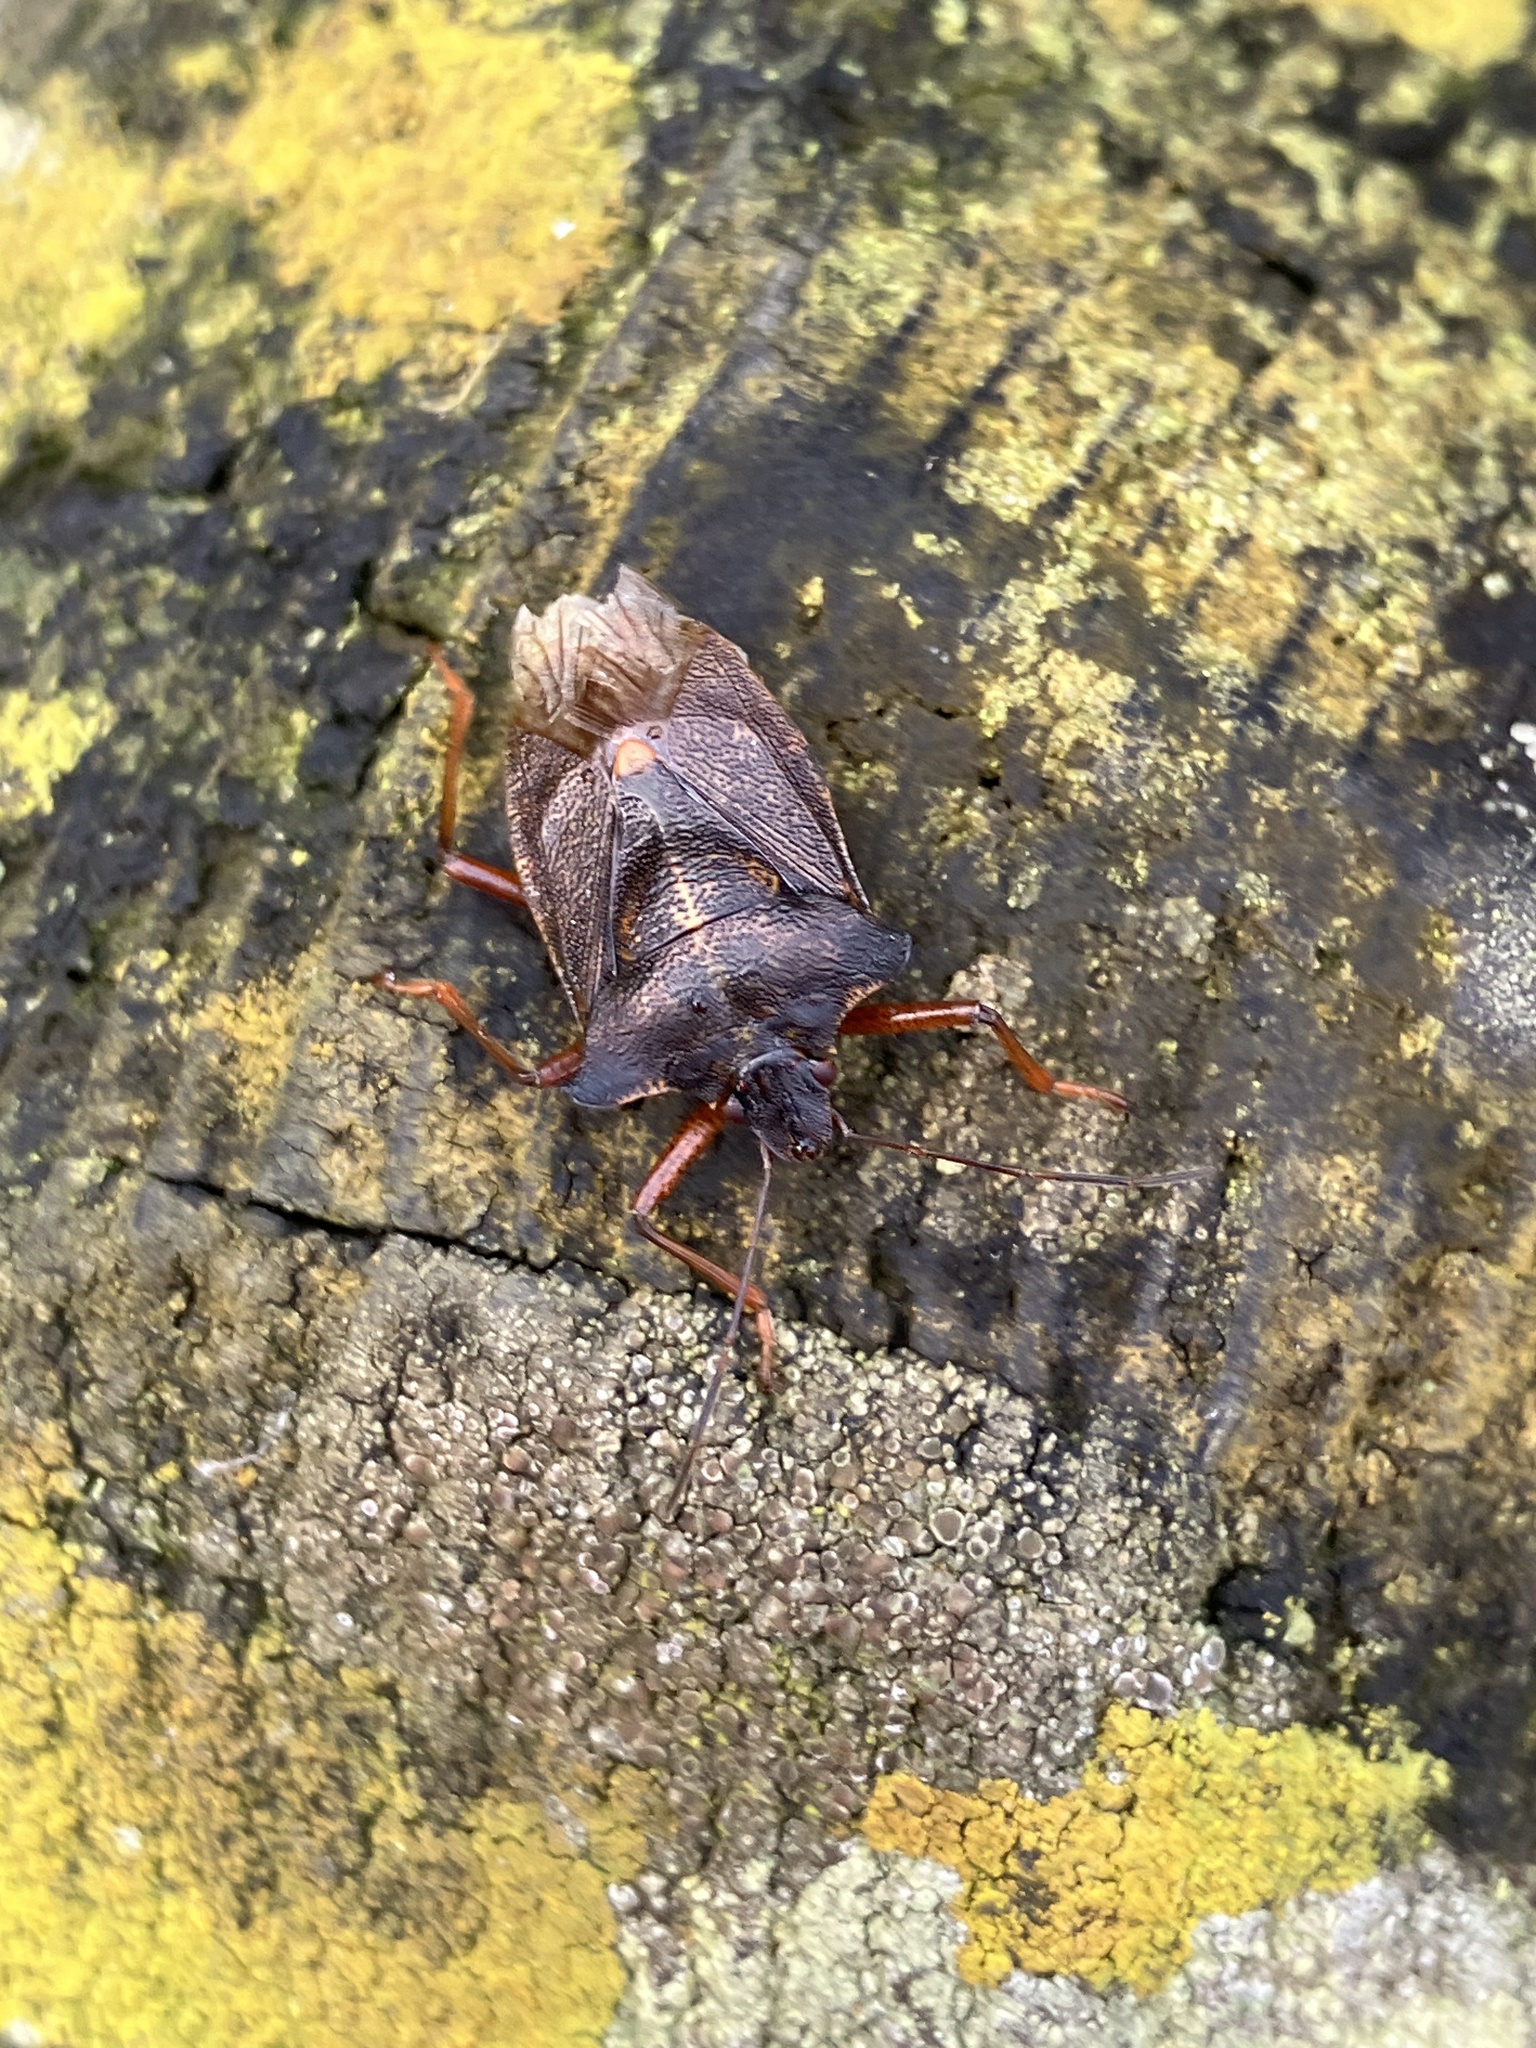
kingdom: Animalia
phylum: Arthropoda
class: Insecta
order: Hemiptera
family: Pentatomidae
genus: Pentatoma
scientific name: Pentatoma rufipes
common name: Forest bug
